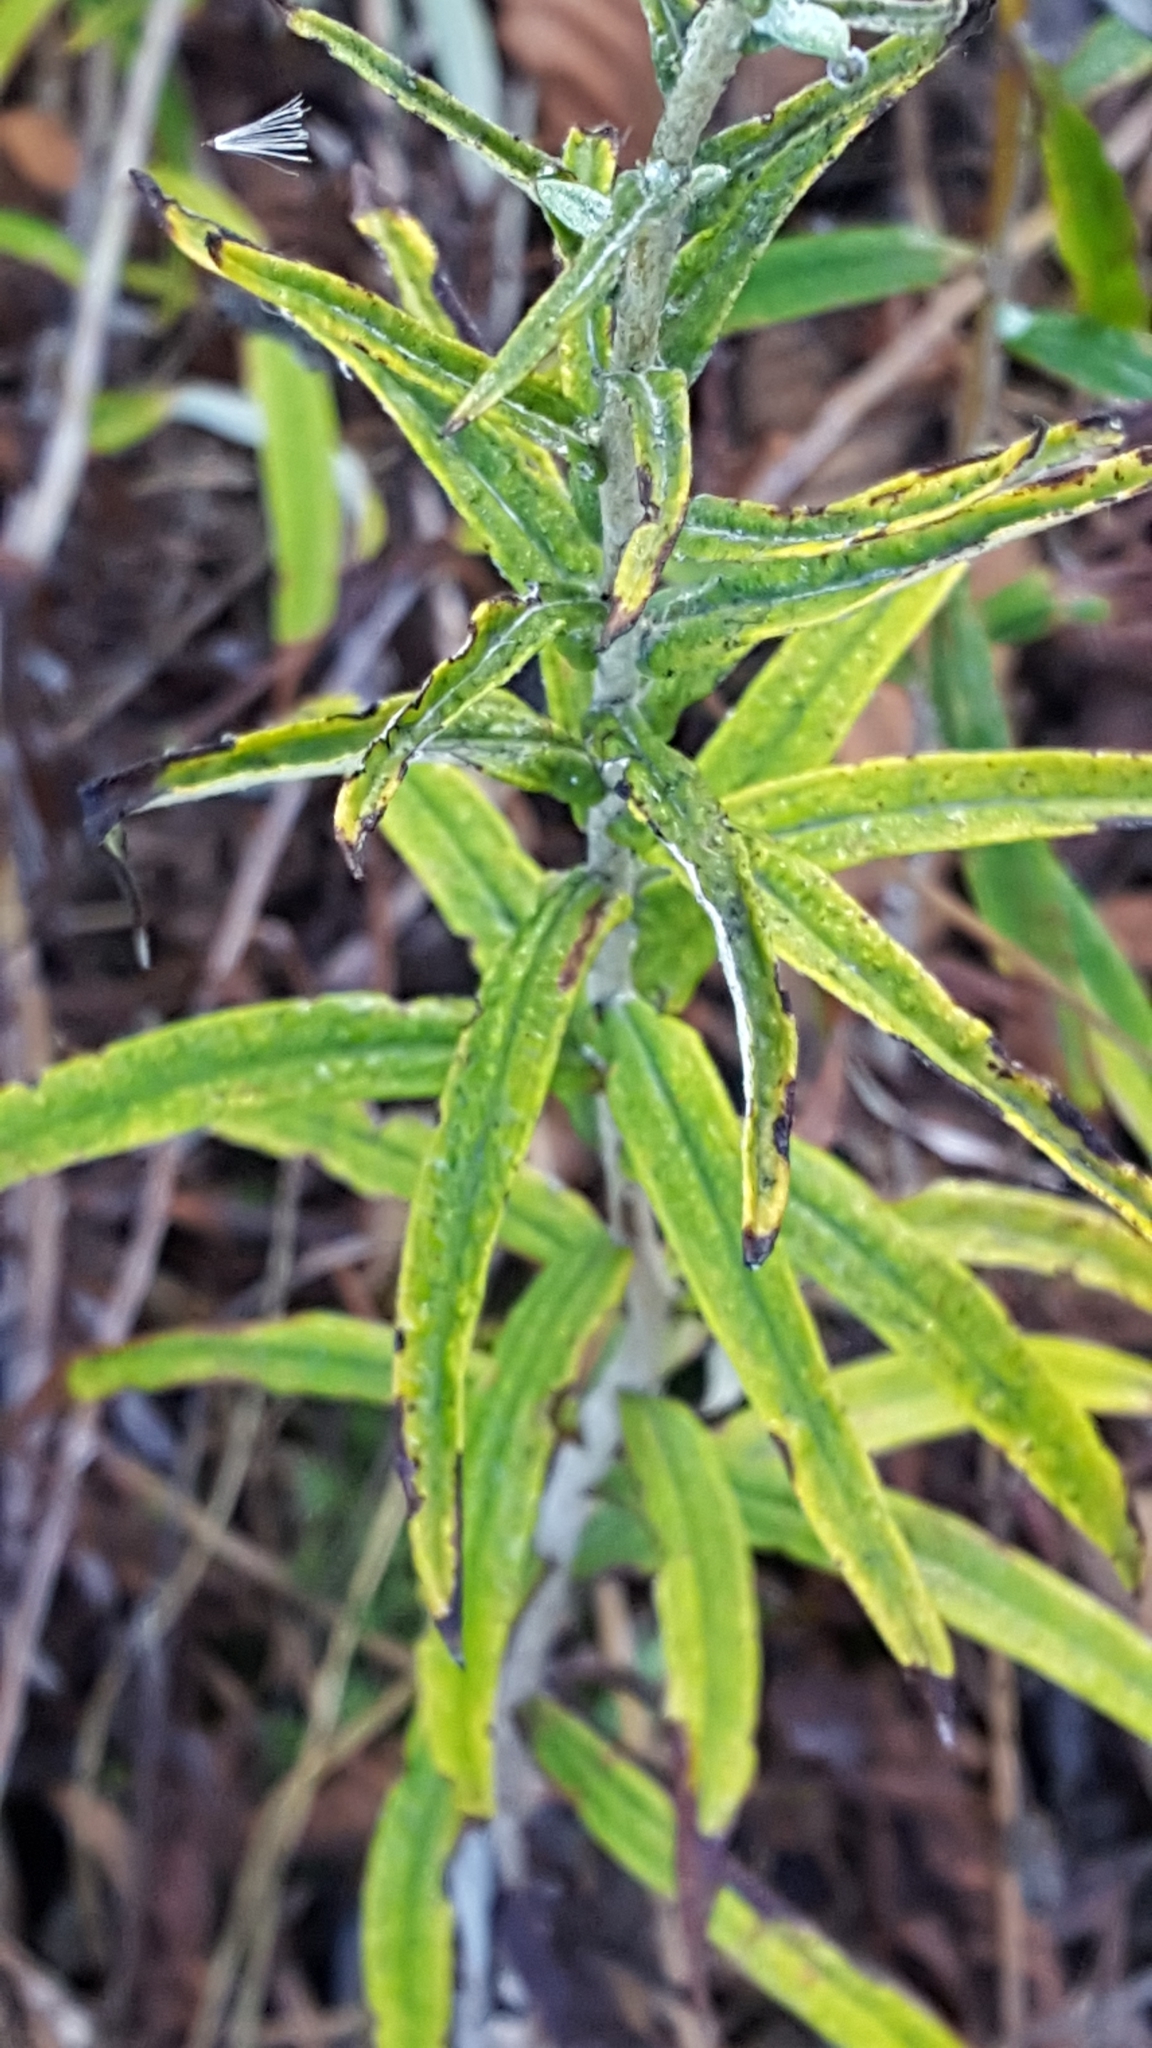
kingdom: Plantae
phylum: Tracheophyta
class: Magnoliopsida
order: Asterales
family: Asteraceae
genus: Anaphalis
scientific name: Anaphalis margaritacea
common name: Pearly everlasting
